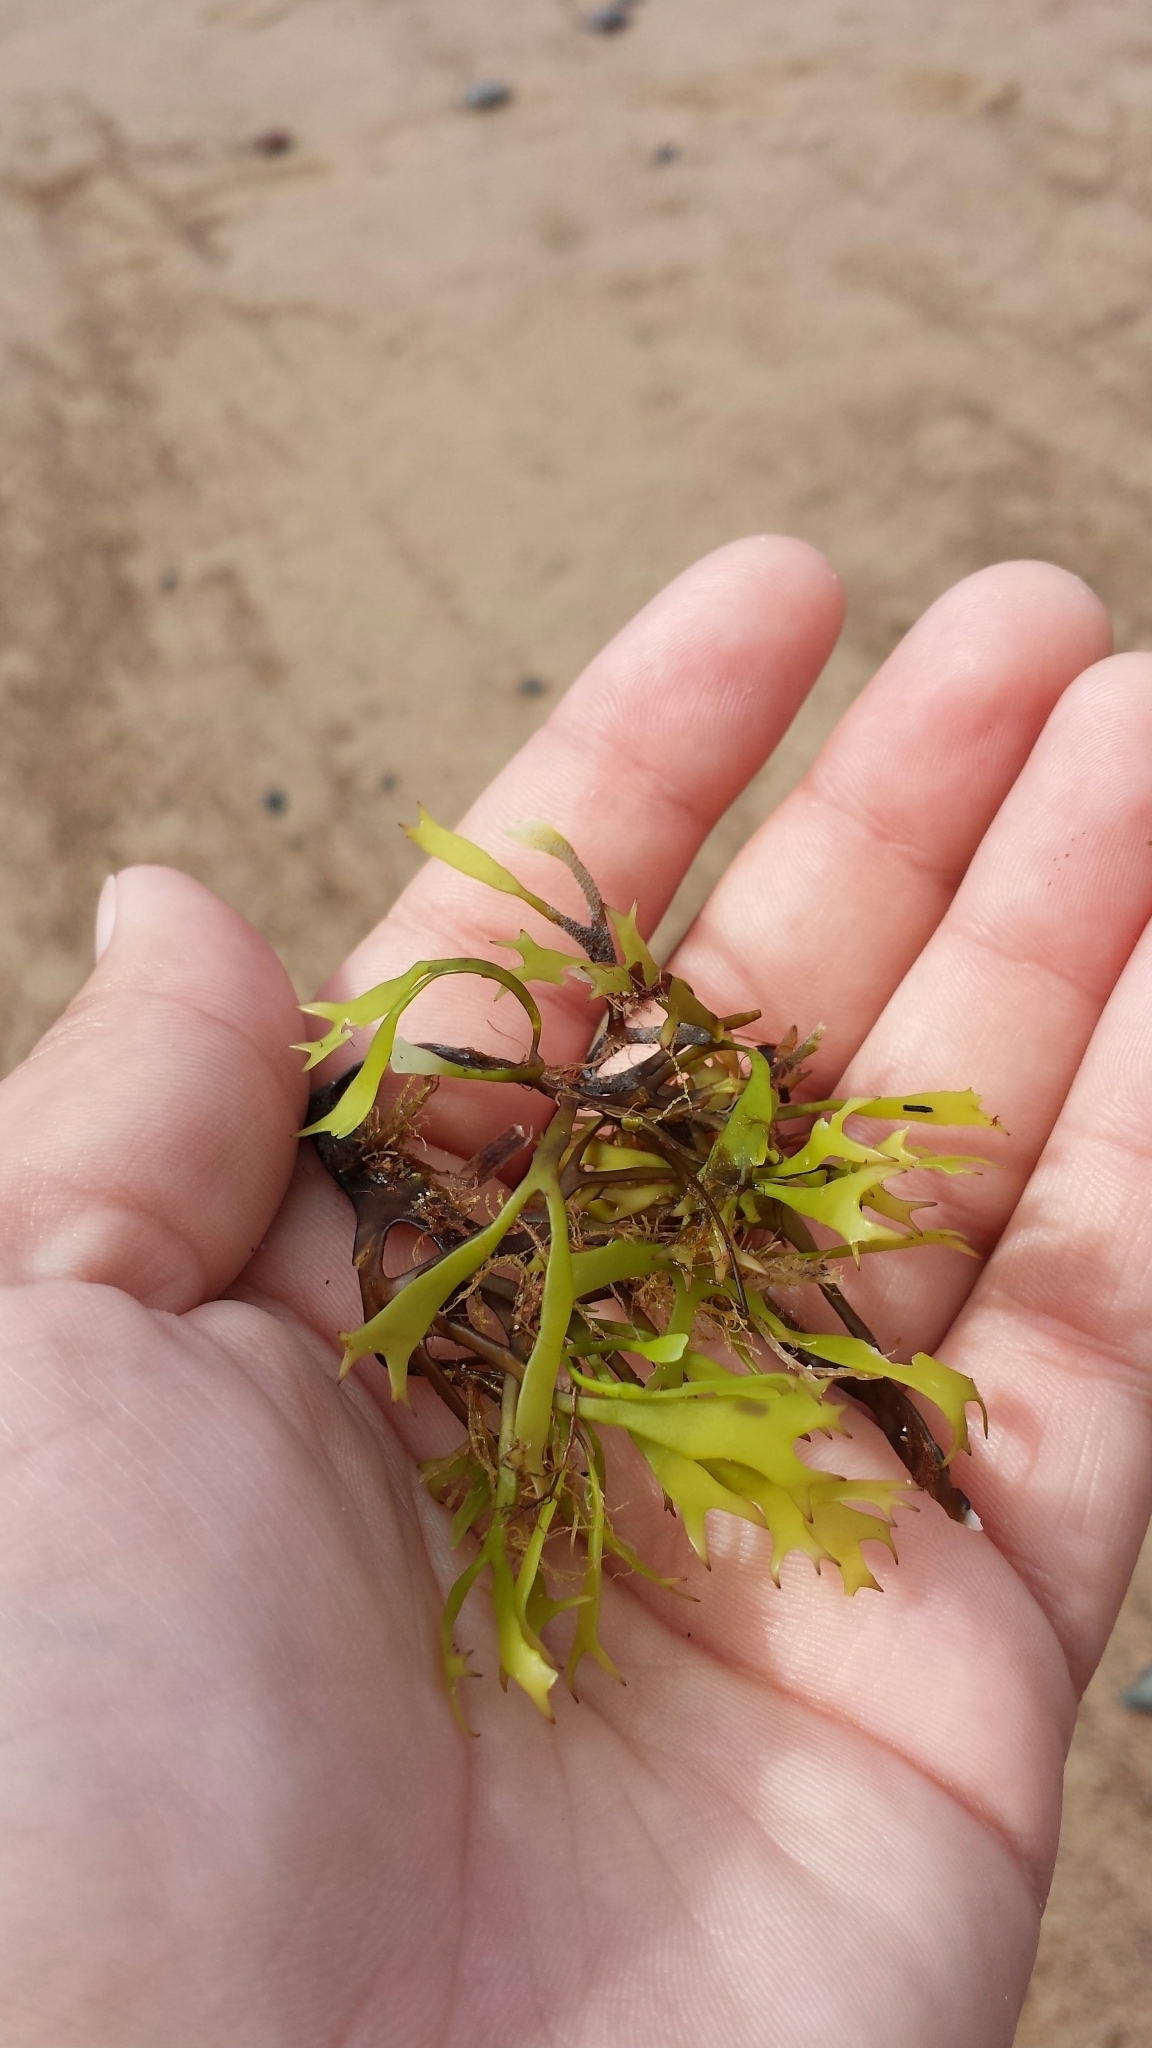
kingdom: Plantae
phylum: Rhodophyta
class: Florideophyceae
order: Gigartinales
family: Gigartinaceae
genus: Chondrus
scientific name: Chondrus crispus
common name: Carrageen
